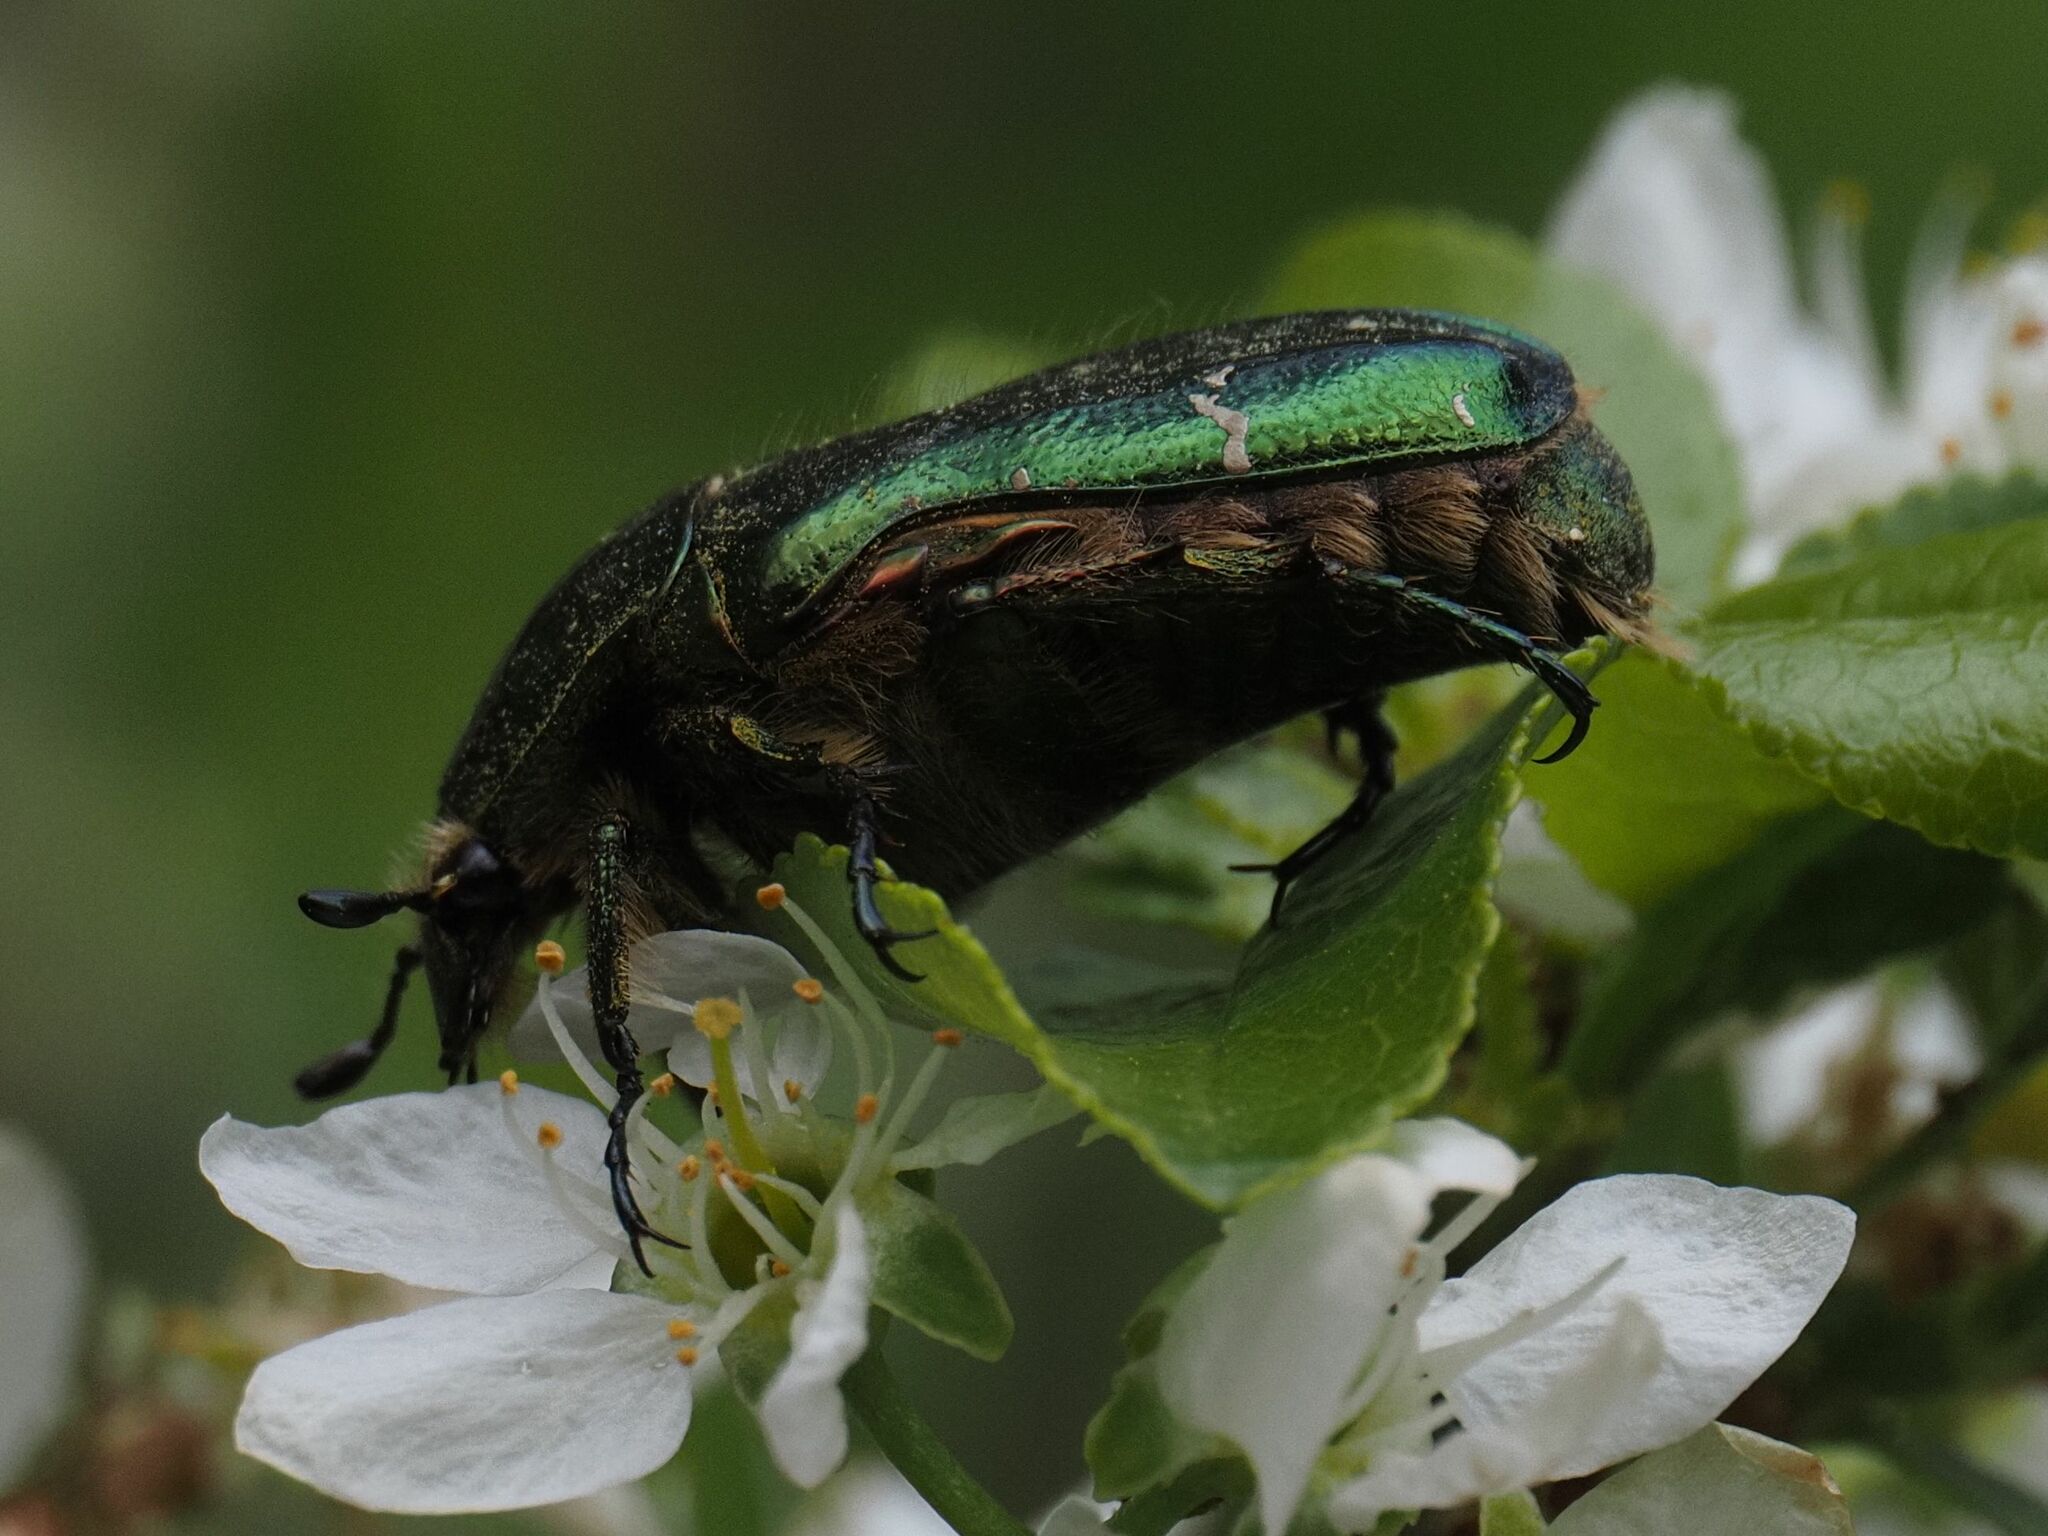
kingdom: Animalia
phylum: Arthropoda
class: Insecta
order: Coleoptera
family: Scarabaeidae
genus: Cetonia
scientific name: Cetonia aurata
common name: Rose chafer
